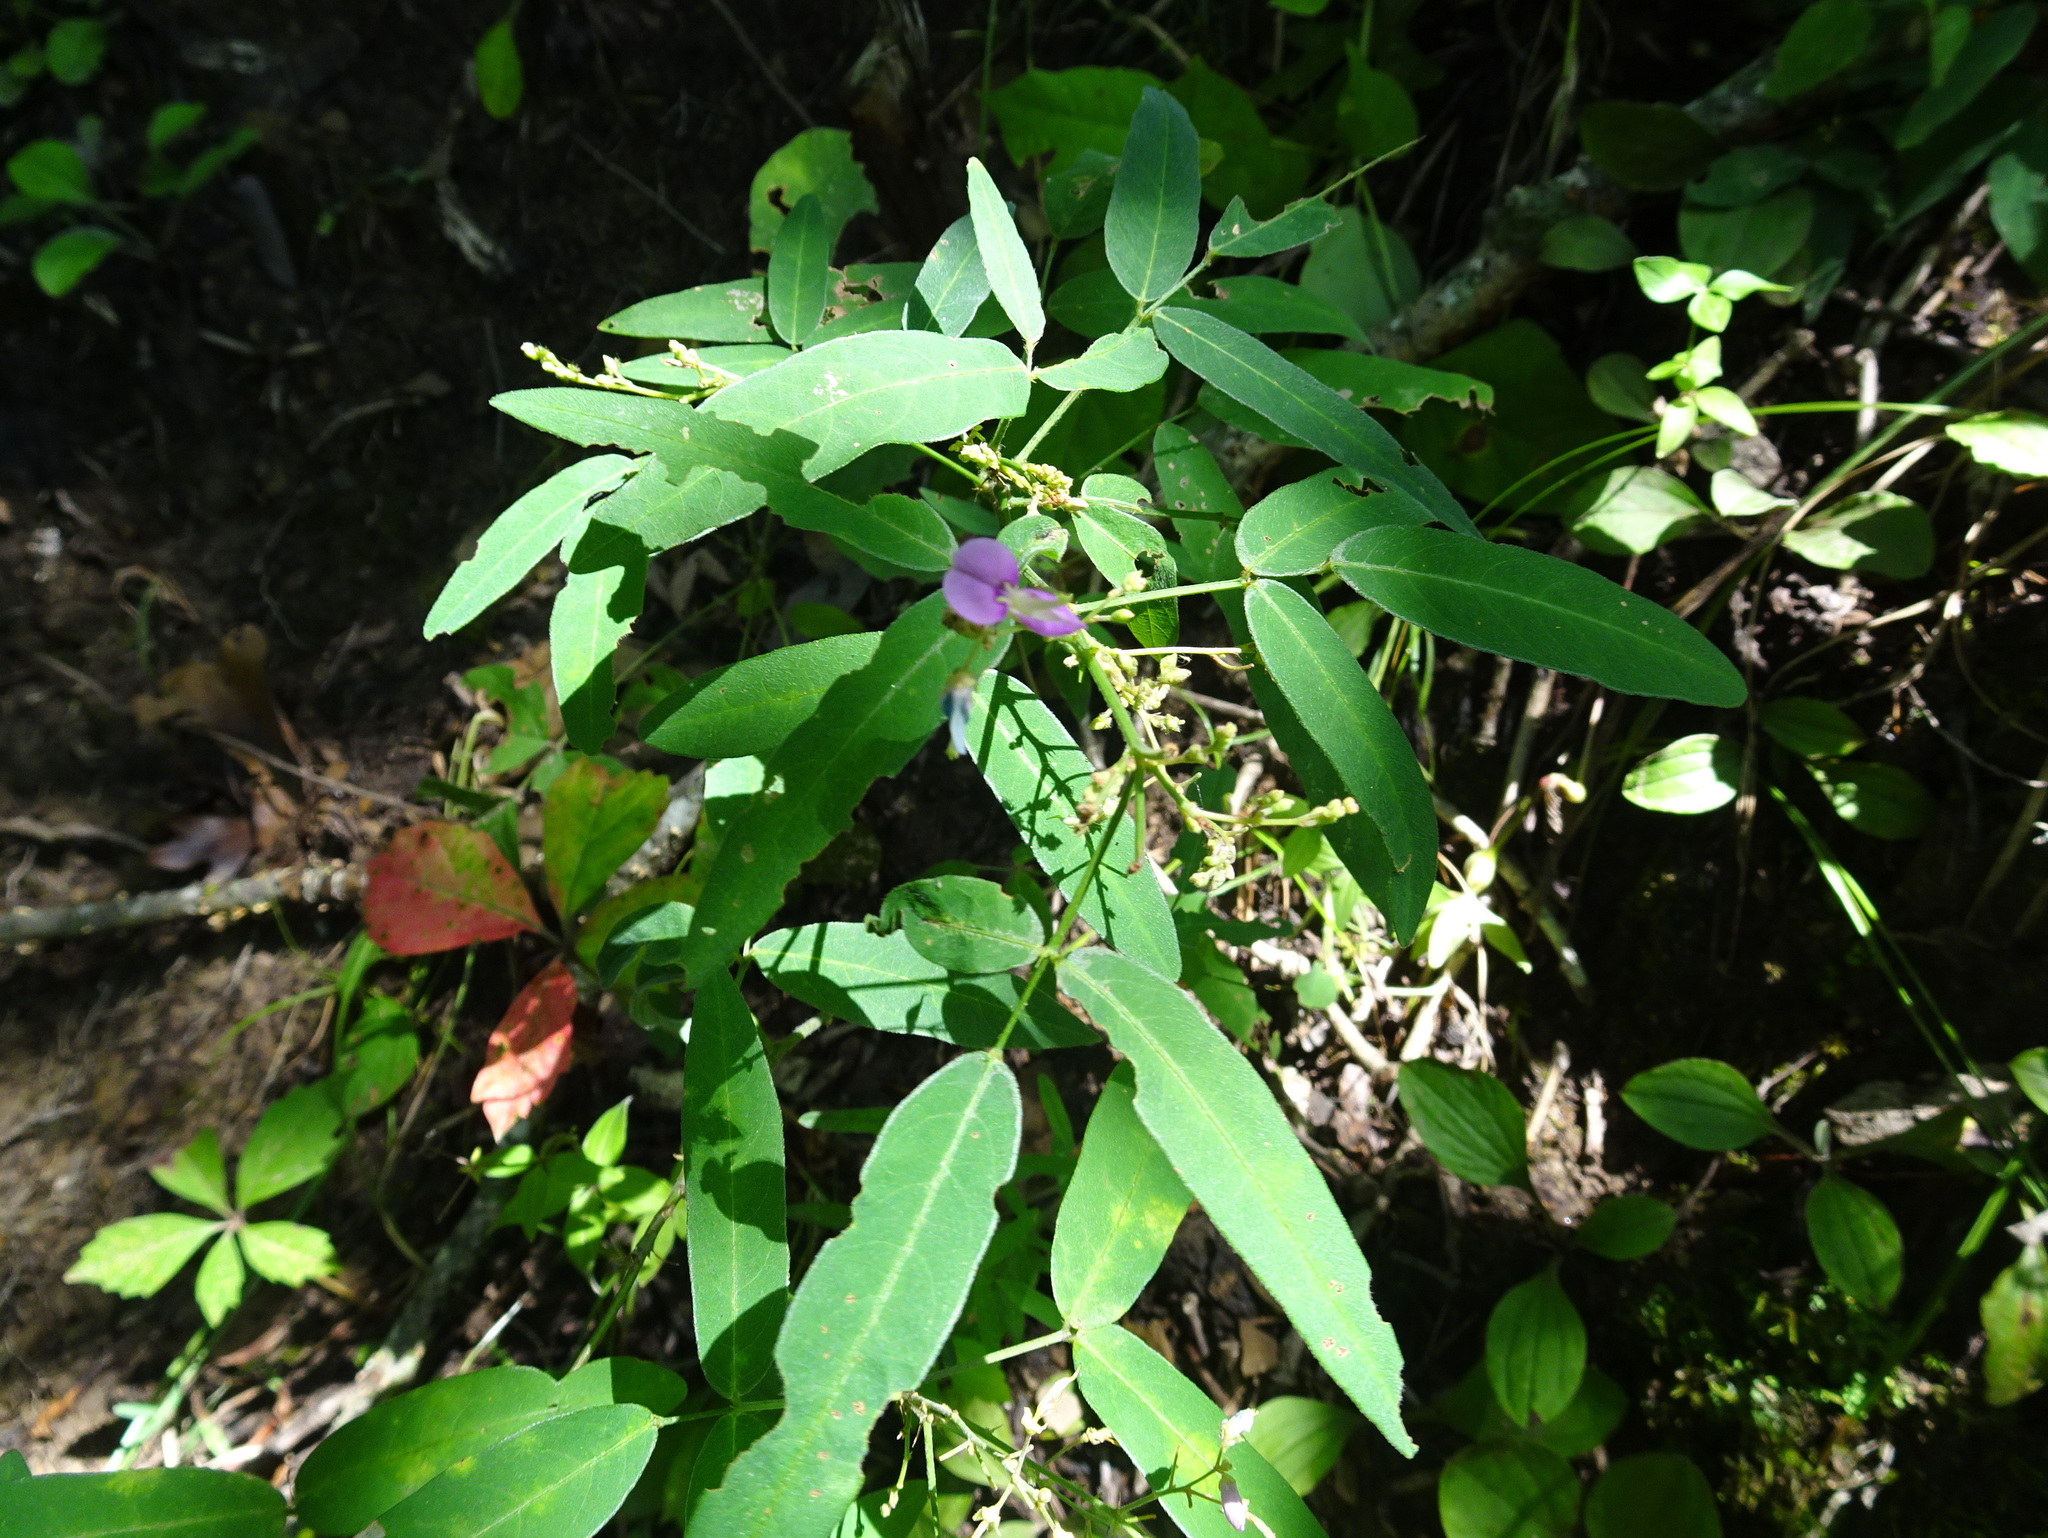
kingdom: Plantae
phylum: Tracheophyta
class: Magnoliopsida
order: Fabales
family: Fabaceae
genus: Desmodium
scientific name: Desmodium paniculatum
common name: Panicled tick-clover
